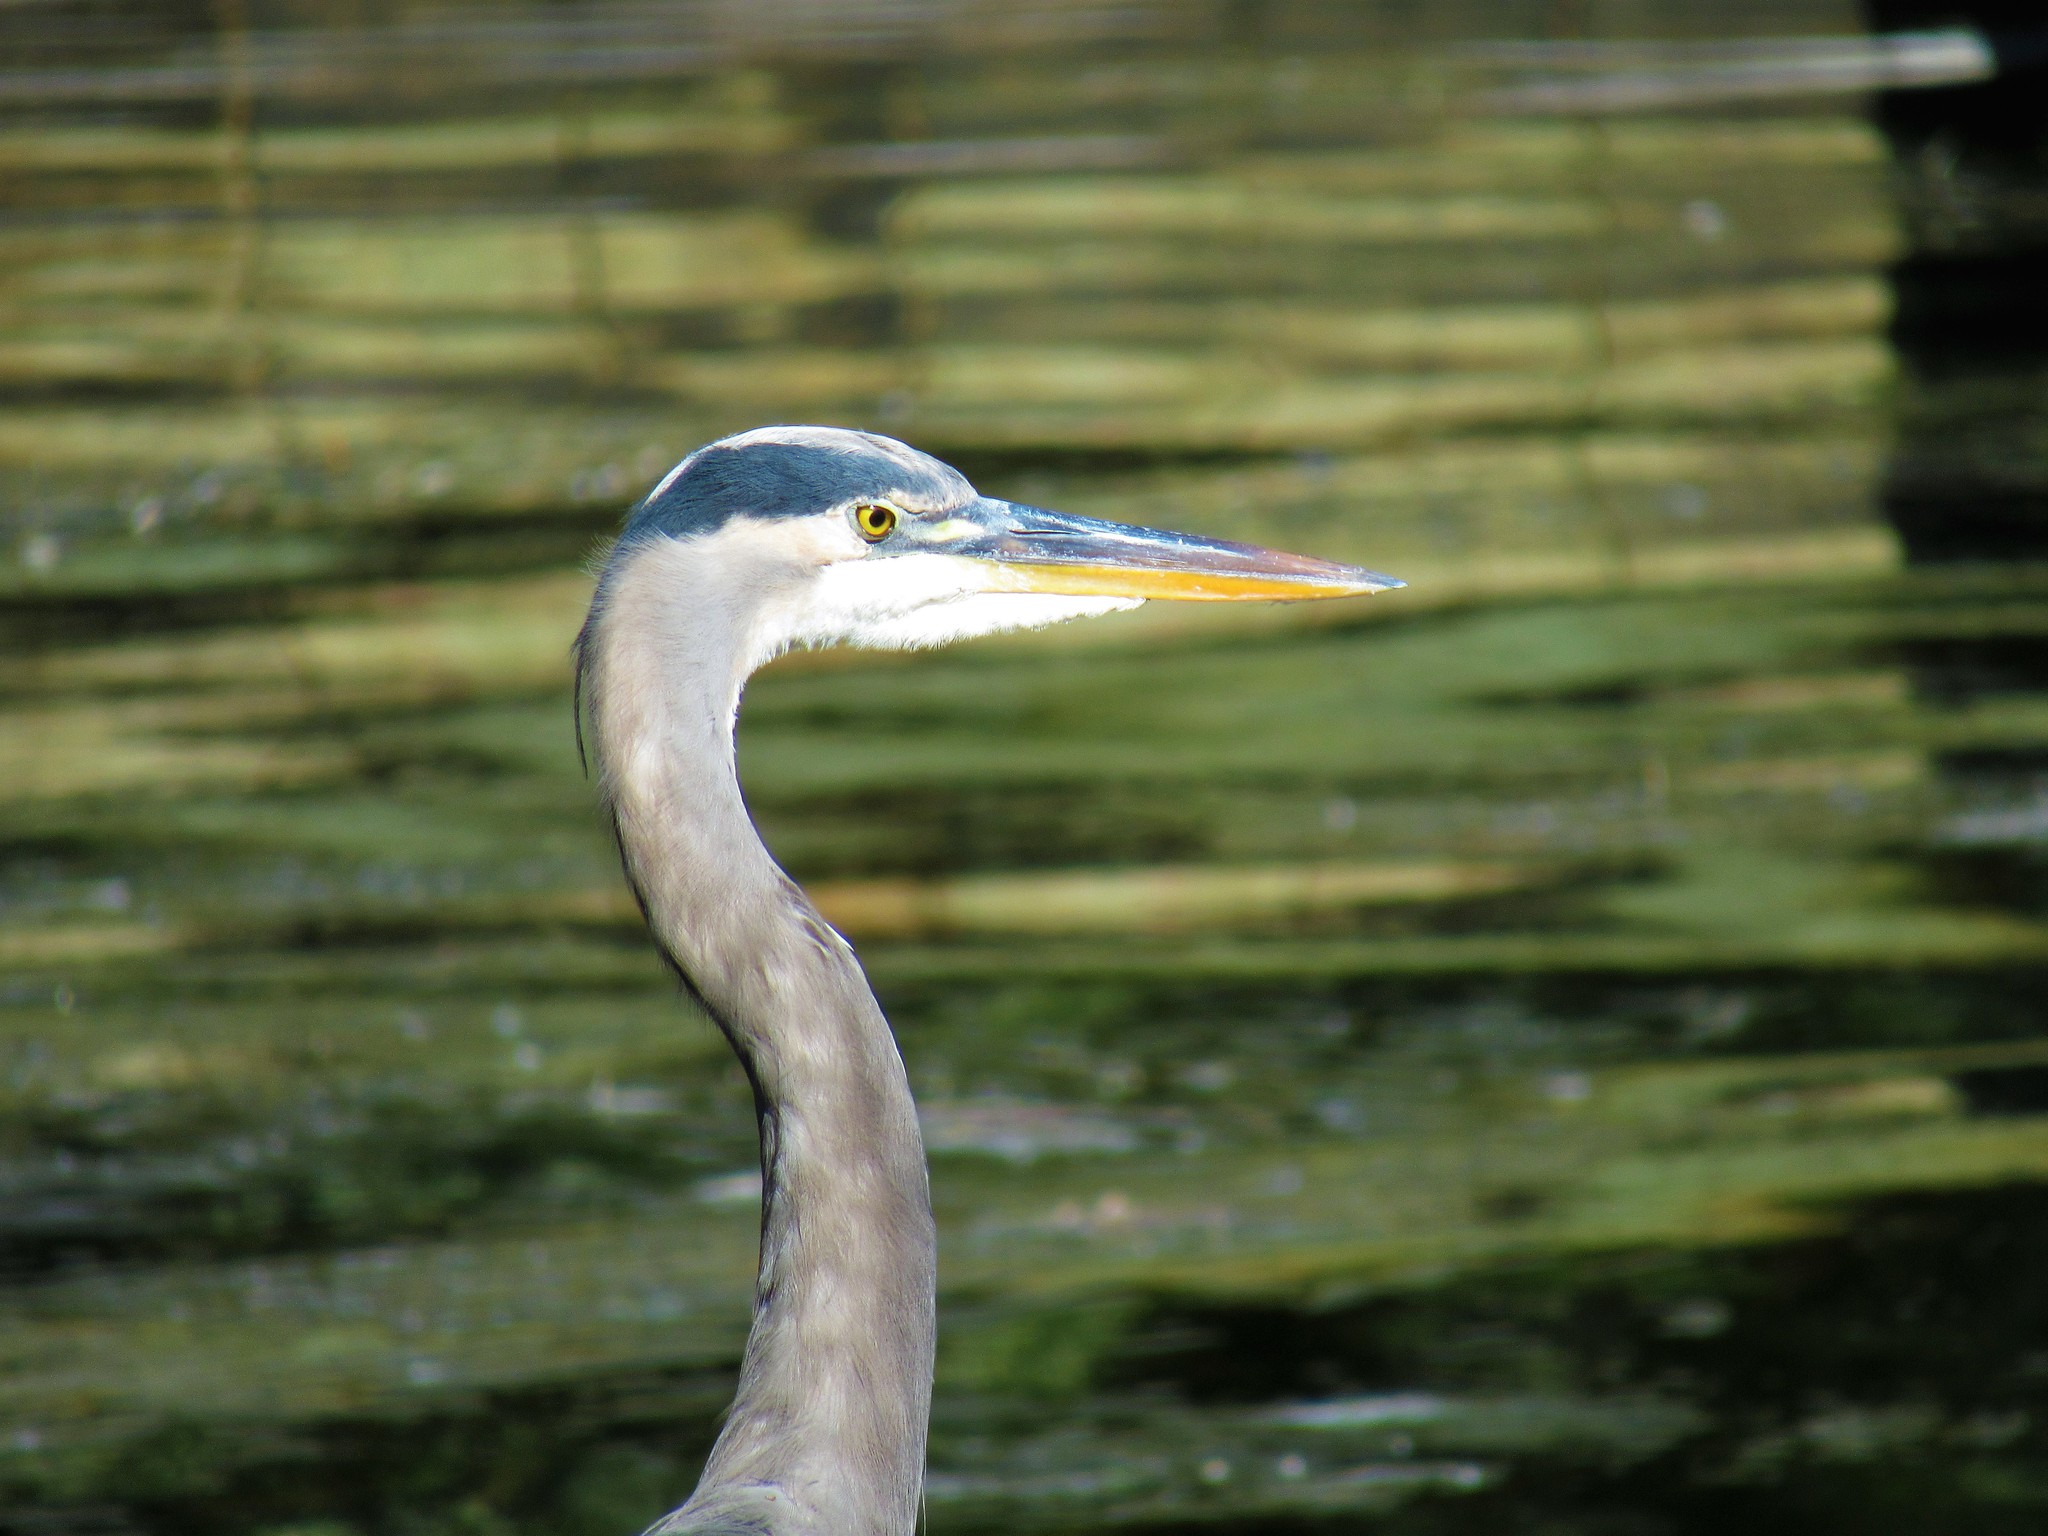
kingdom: Animalia
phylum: Chordata
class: Aves
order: Pelecaniformes
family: Ardeidae
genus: Ardea
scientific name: Ardea herodias
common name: Great blue heron
